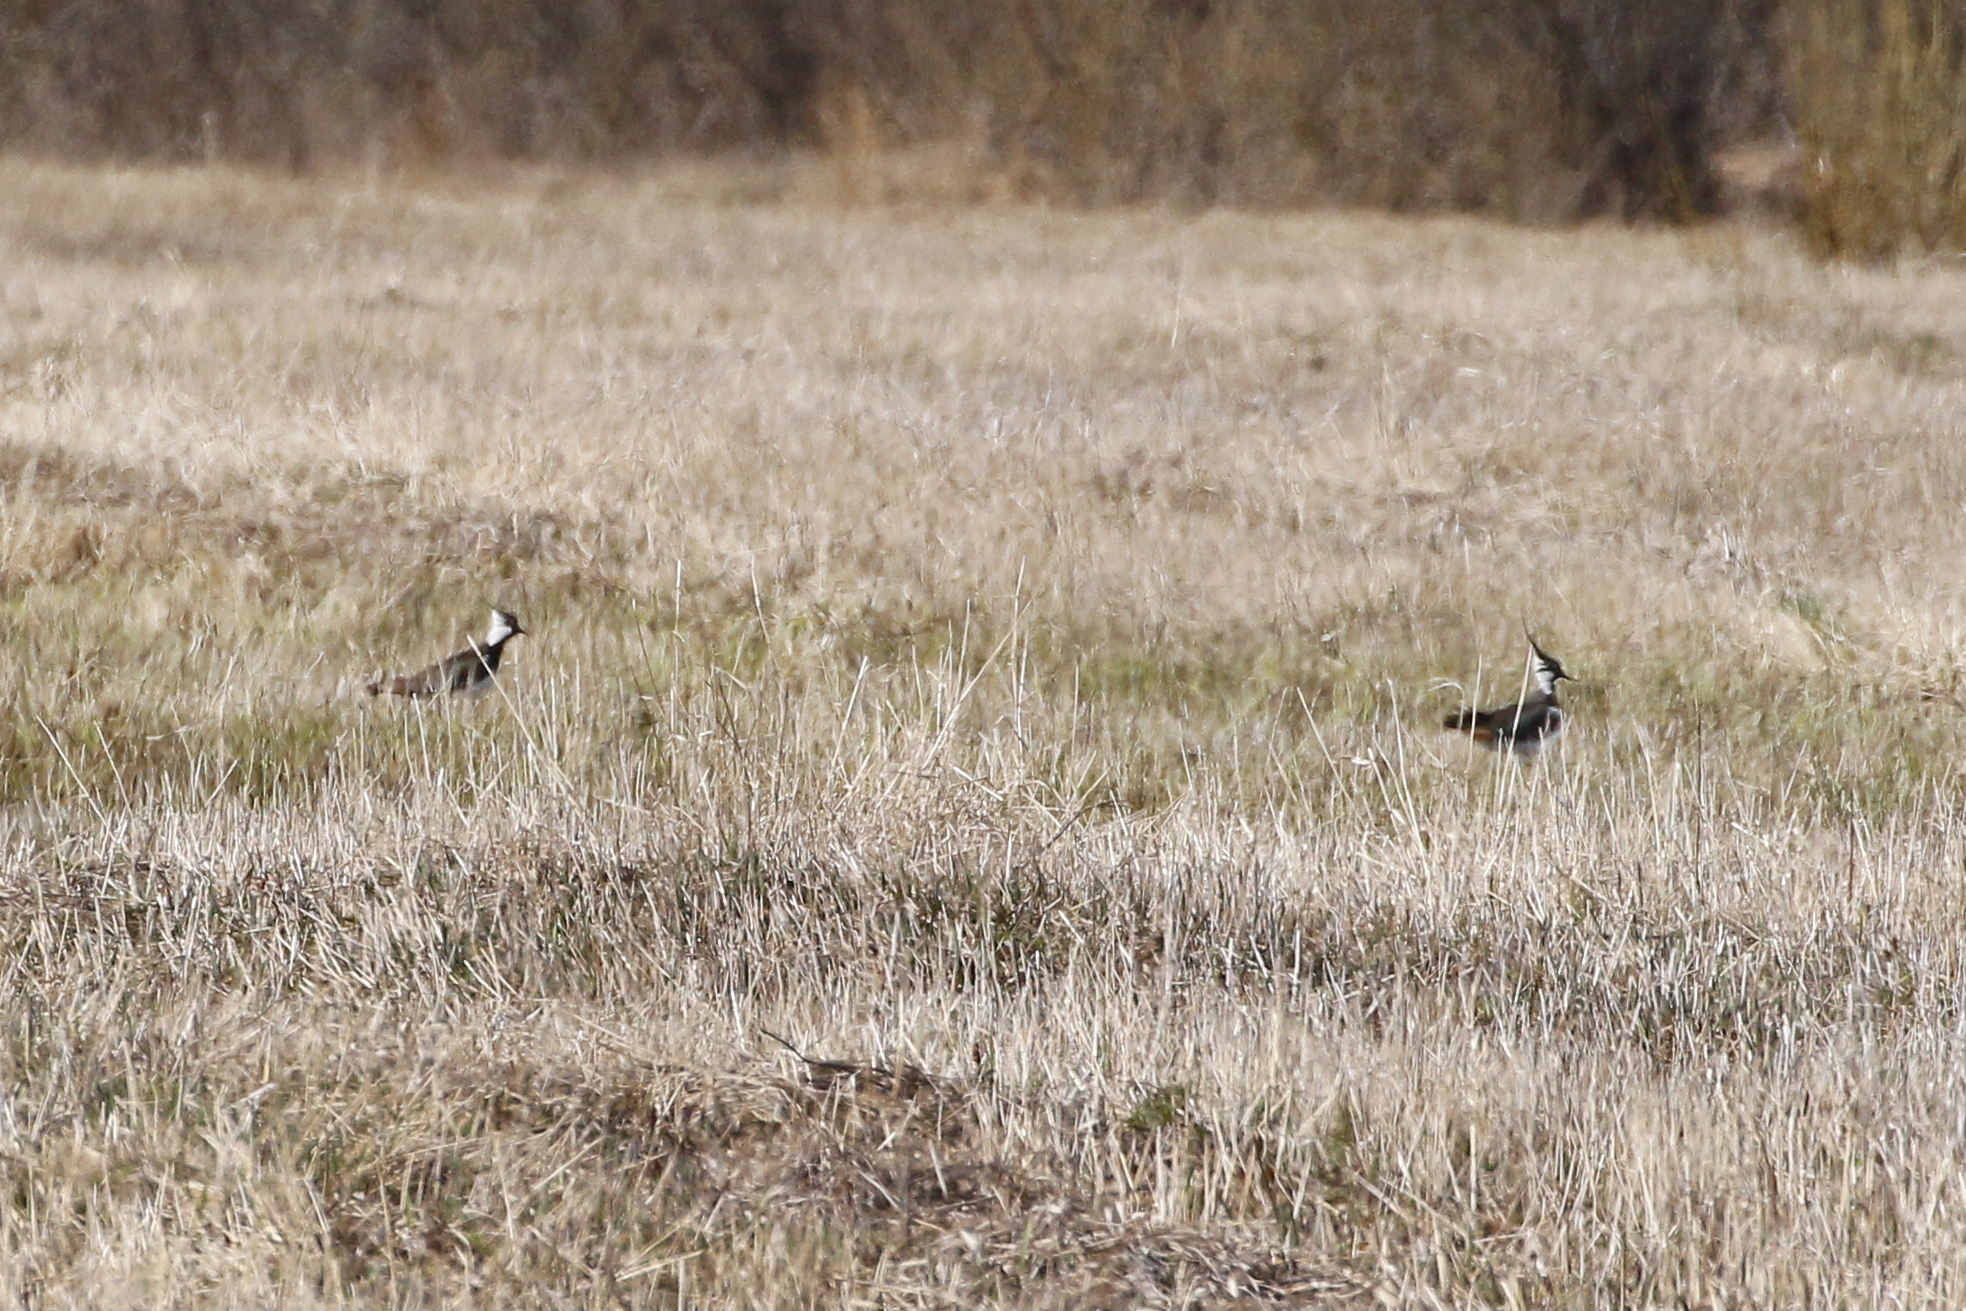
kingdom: Animalia
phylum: Chordata
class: Aves
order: Charadriiformes
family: Charadriidae
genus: Vanellus
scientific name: Vanellus vanellus
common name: Northern lapwing
